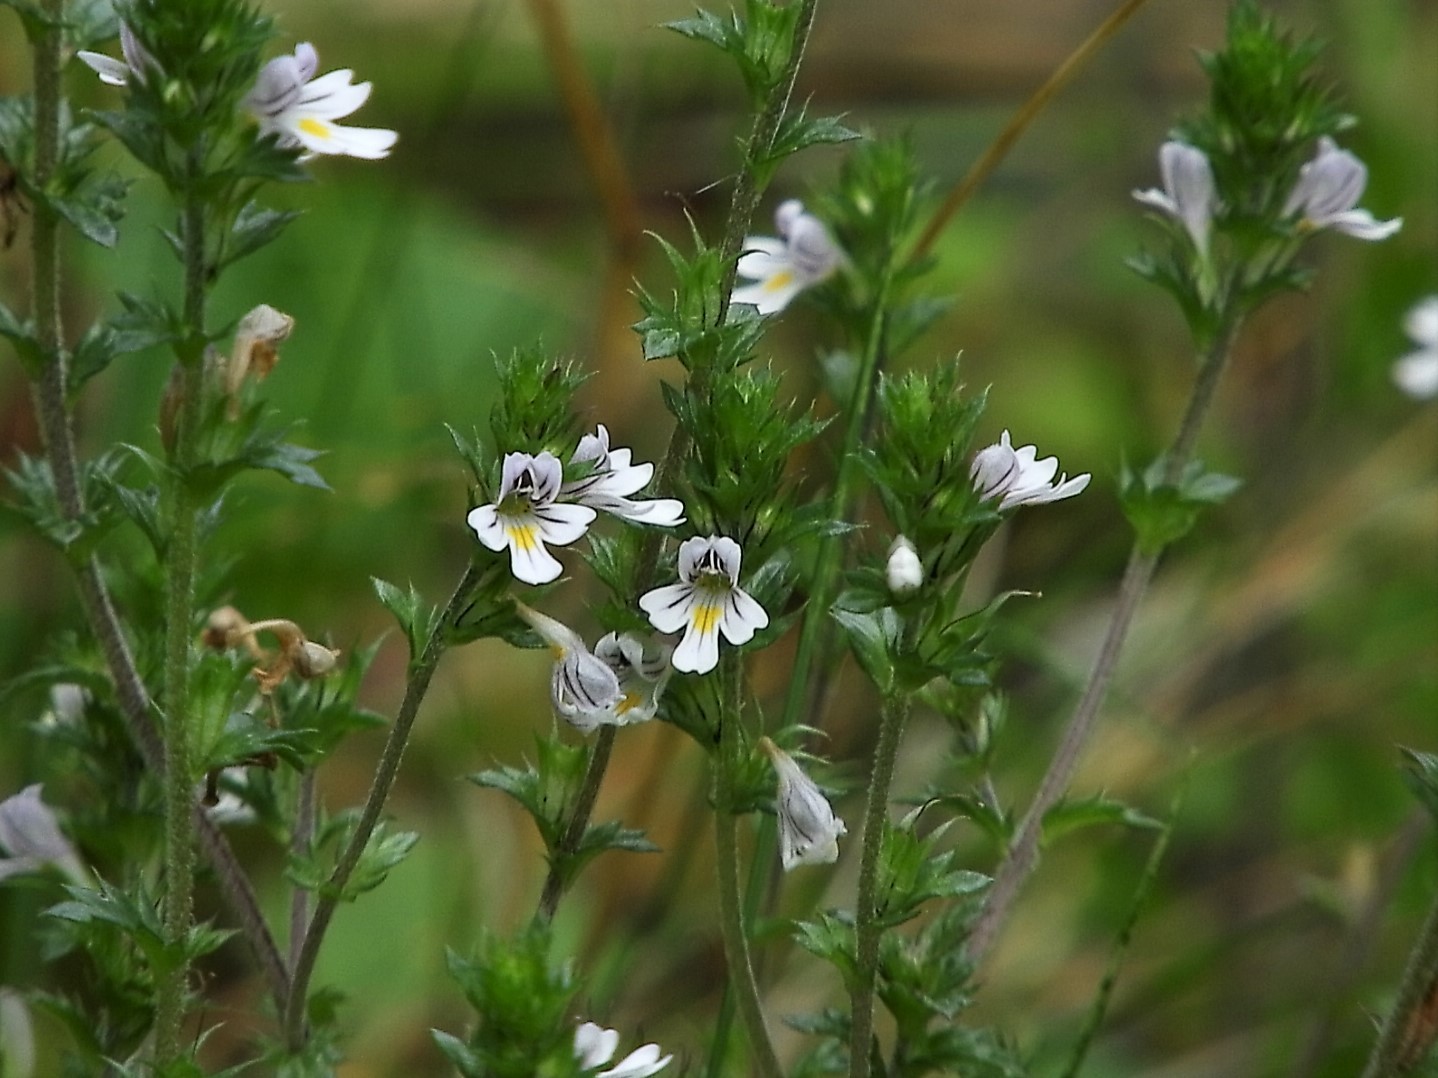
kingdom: Plantae
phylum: Tracheophyta
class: Magnoliopsida
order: Lamiales
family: Orobanchaceae
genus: Euphrasia
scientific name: Euphrasia nemorosa
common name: Common eyebright
